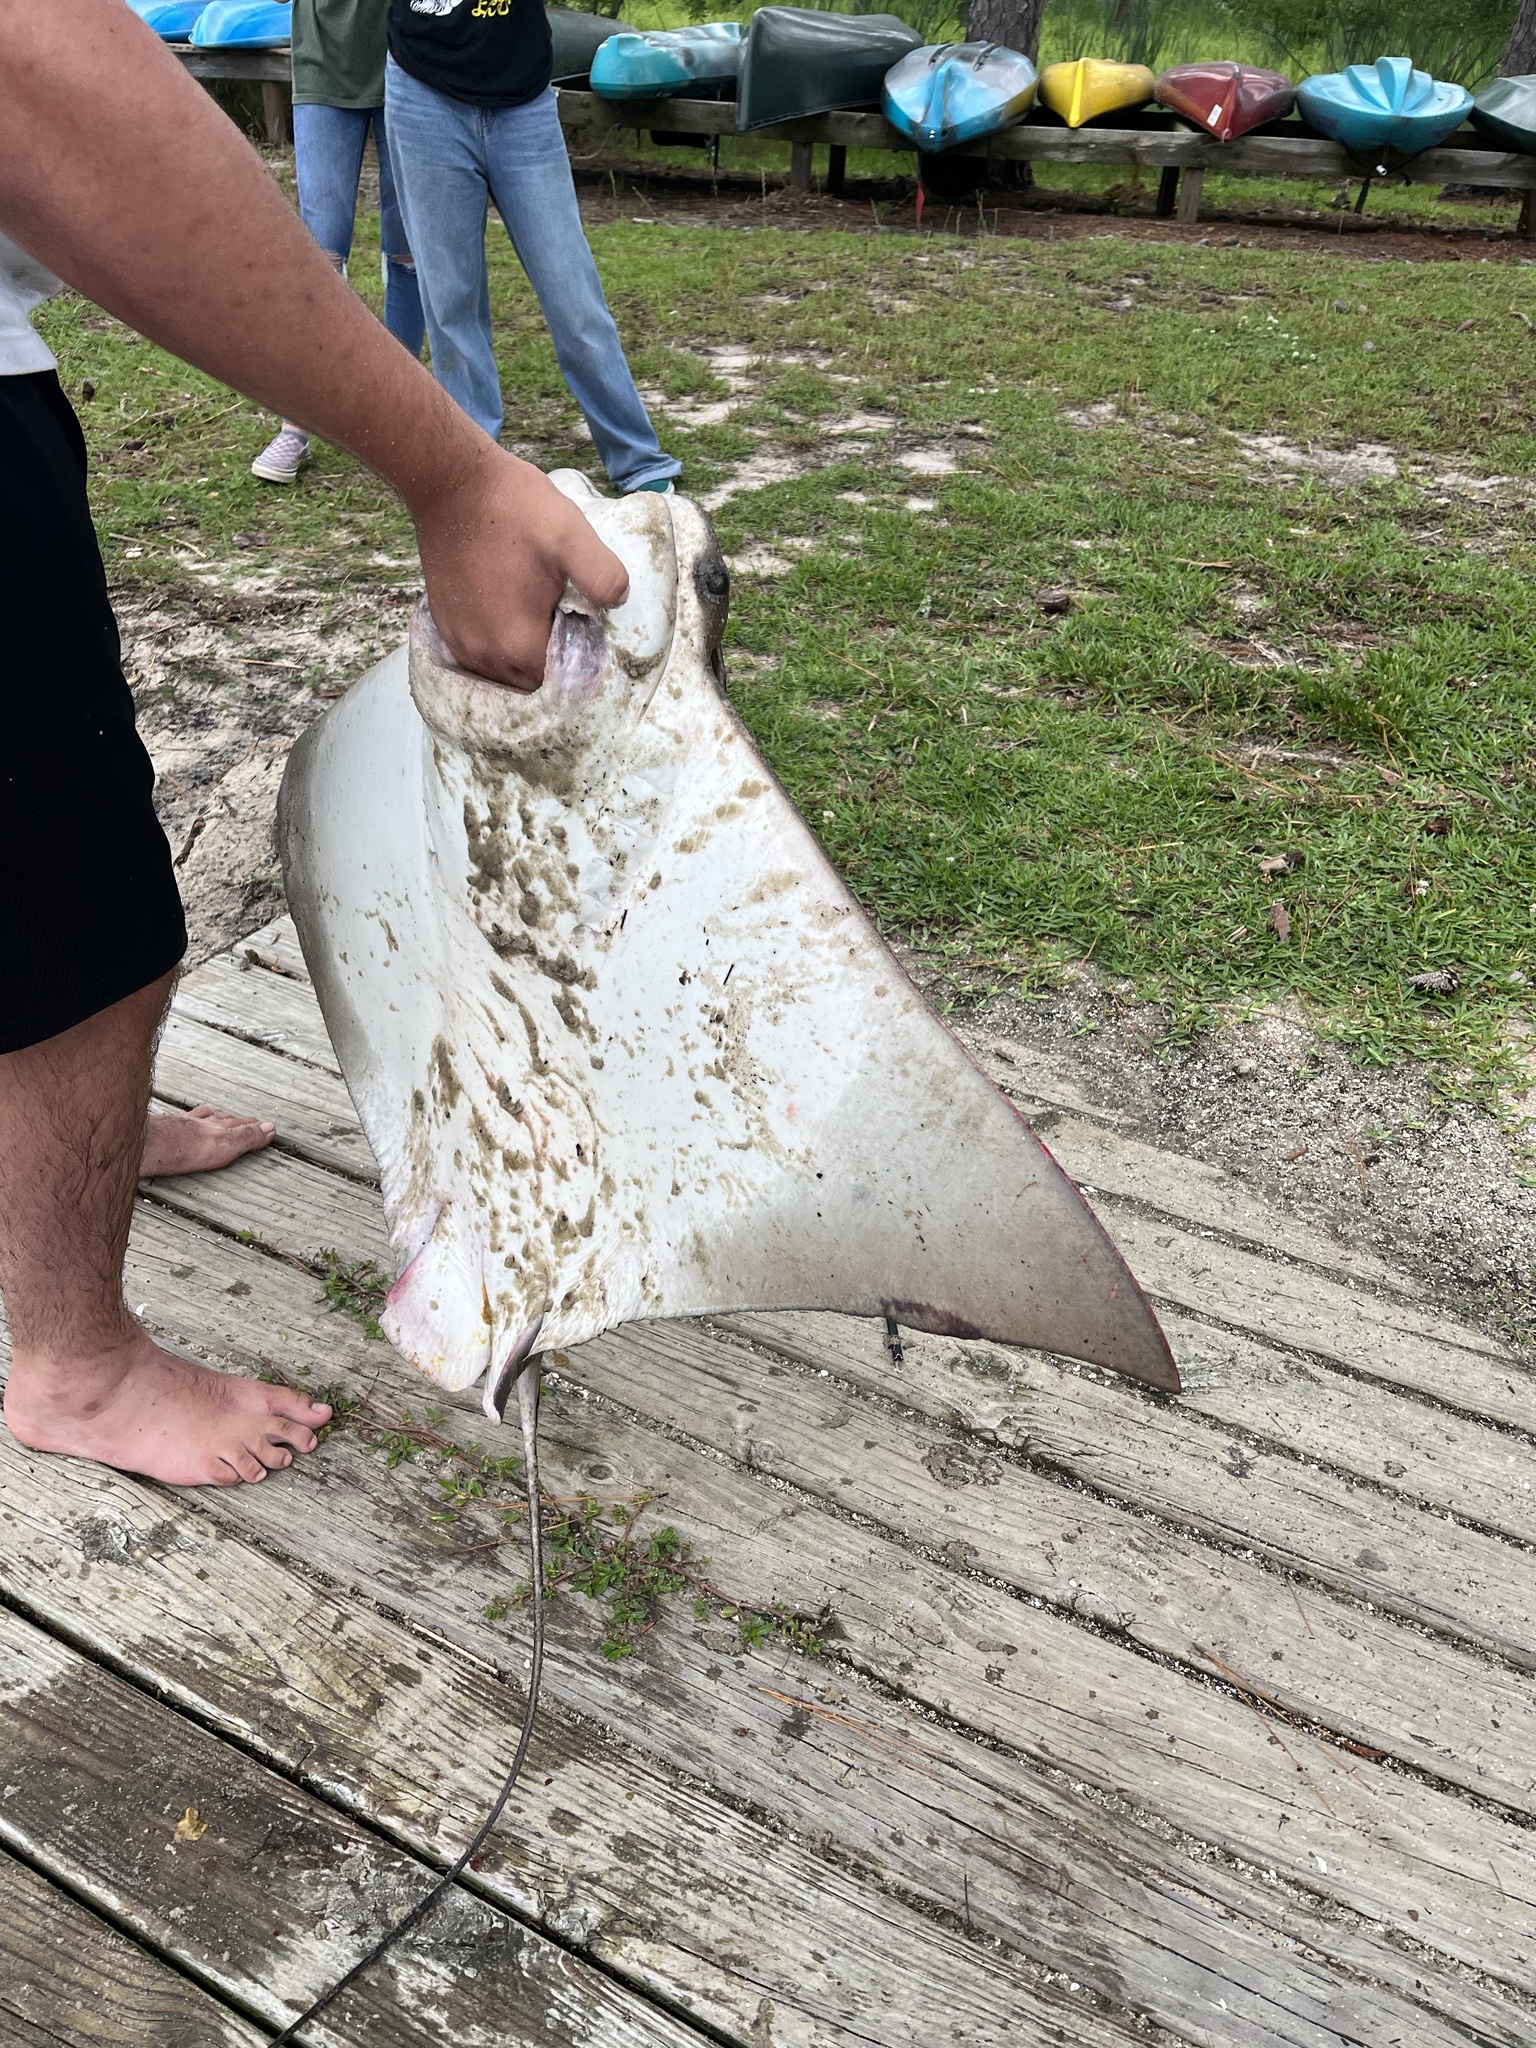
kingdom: Animalia
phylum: Chordata
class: Elasmobranchii
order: Myliobatiformes
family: Myliobatidae
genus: Rhinoptera
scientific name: Rhinoptera bonasus
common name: Cownose ray
